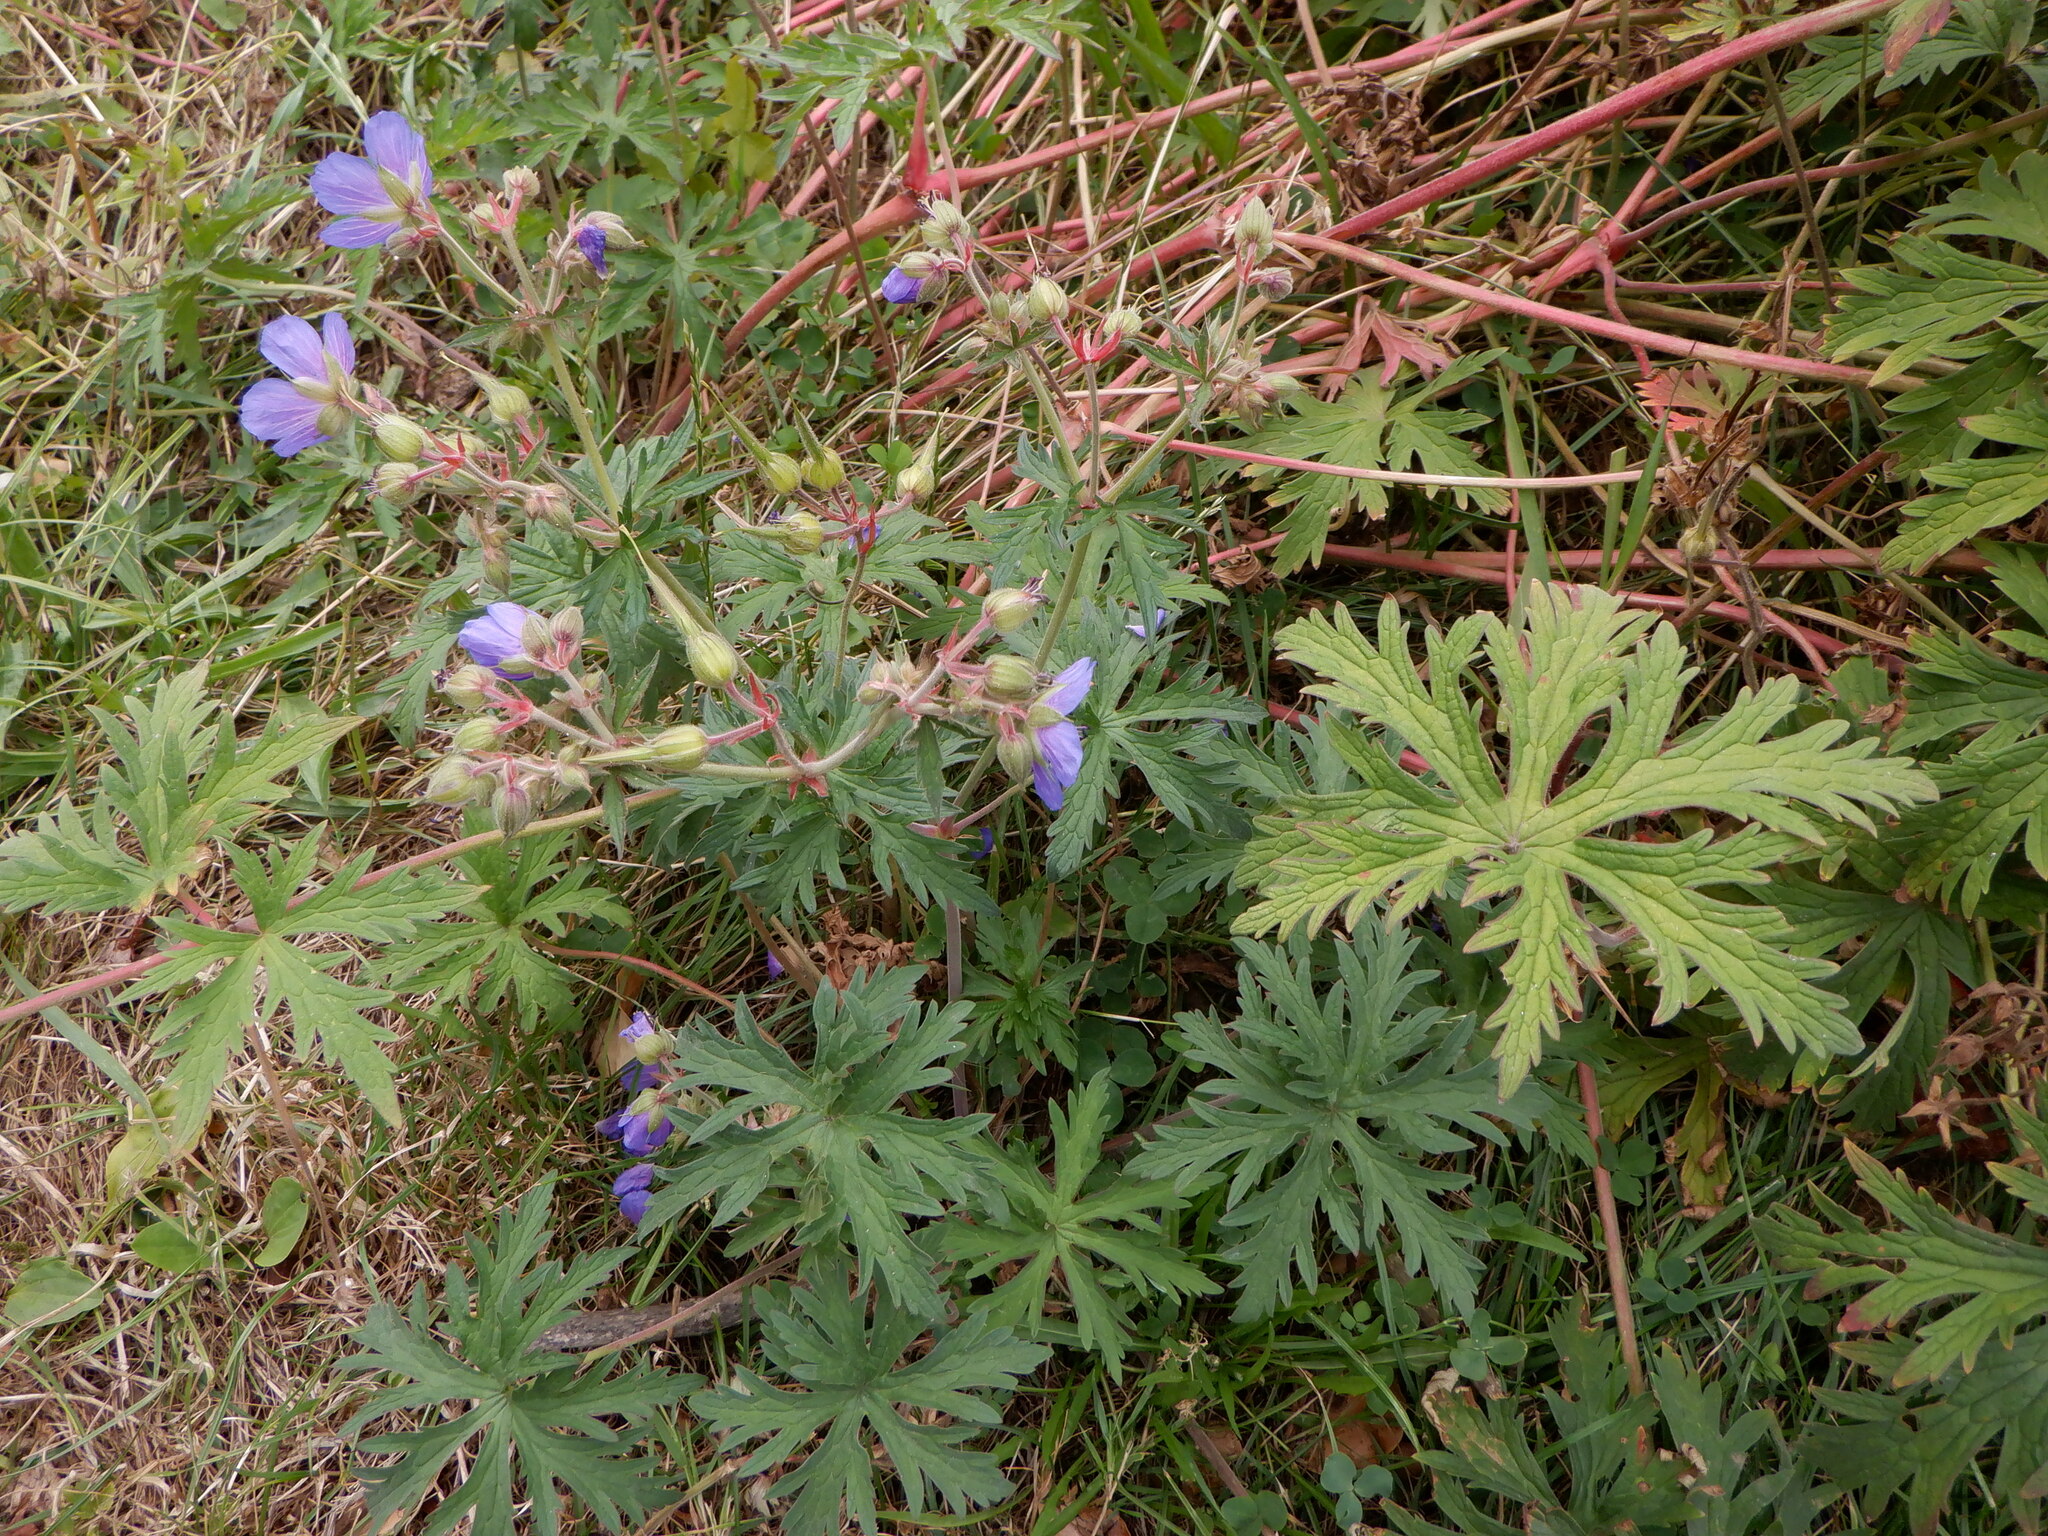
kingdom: Plantae
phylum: Tracheophyta
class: Magnoliopsida
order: Geraniales
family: Geraniaceae
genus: Geranium
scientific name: Geranium pratense
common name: Meadow crane's-bill
